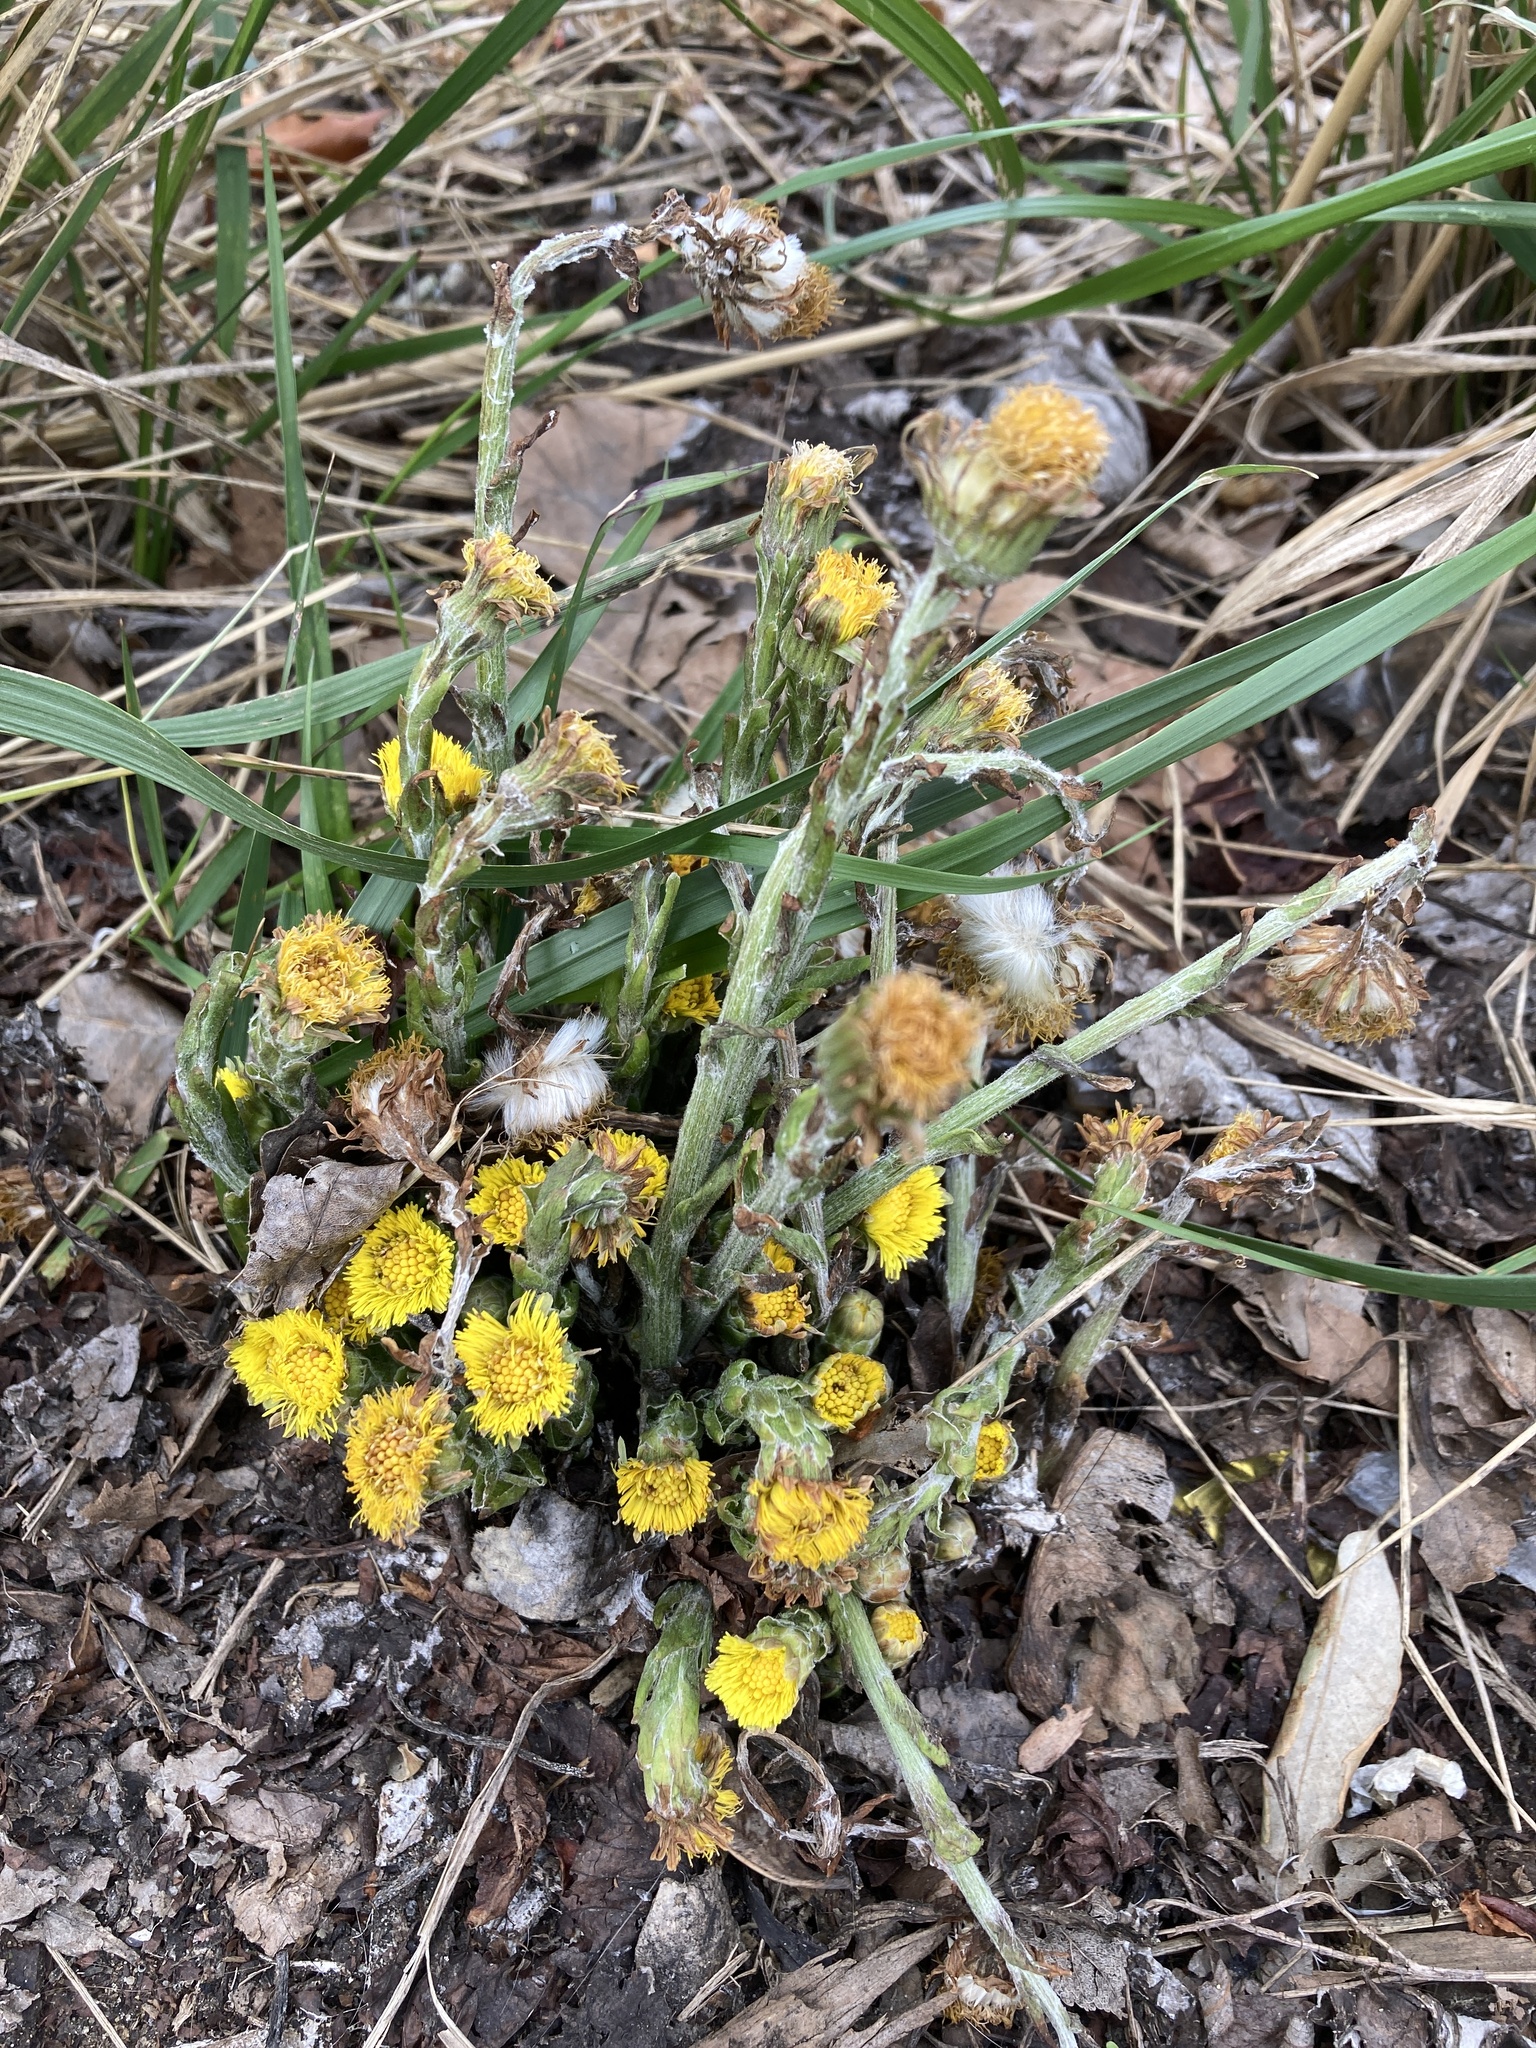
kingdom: Plantae
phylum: Tracheophyta
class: Magnoliopsida
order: Asterales
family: Asteraceae
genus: Tussilago
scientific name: Tussilago farfara
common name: Coltsfoot
